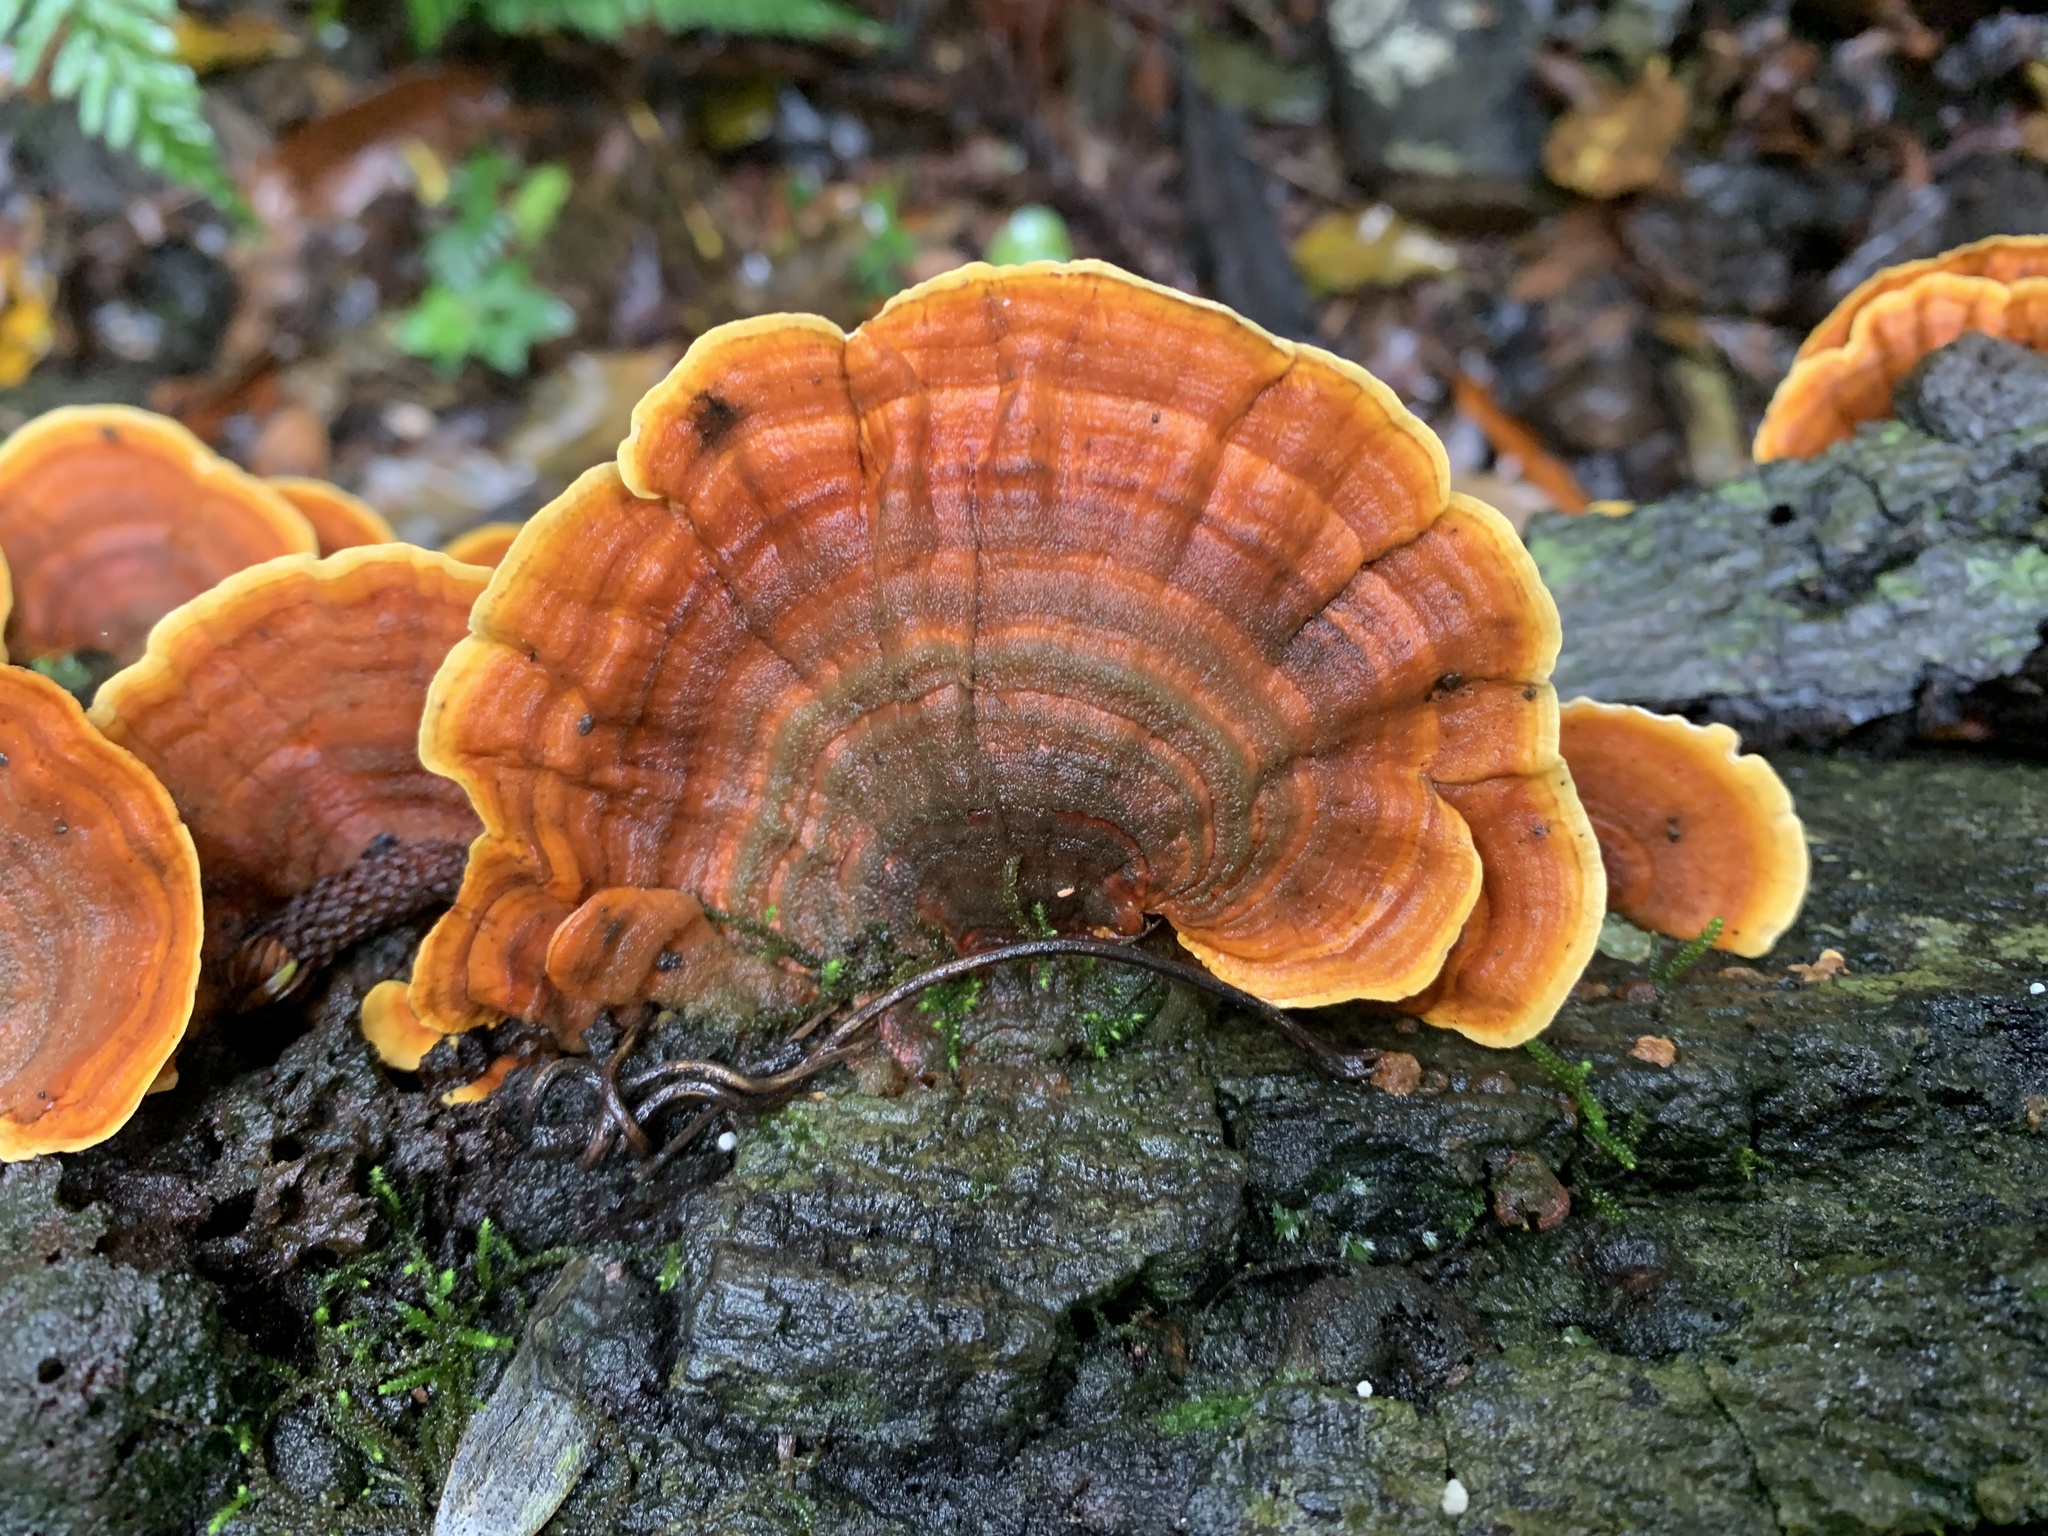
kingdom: Fungi
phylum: Basidiomycota
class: Agaricomycetes
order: Russulales
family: Stereaceae
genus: Stereum
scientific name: Stereum versicolor
